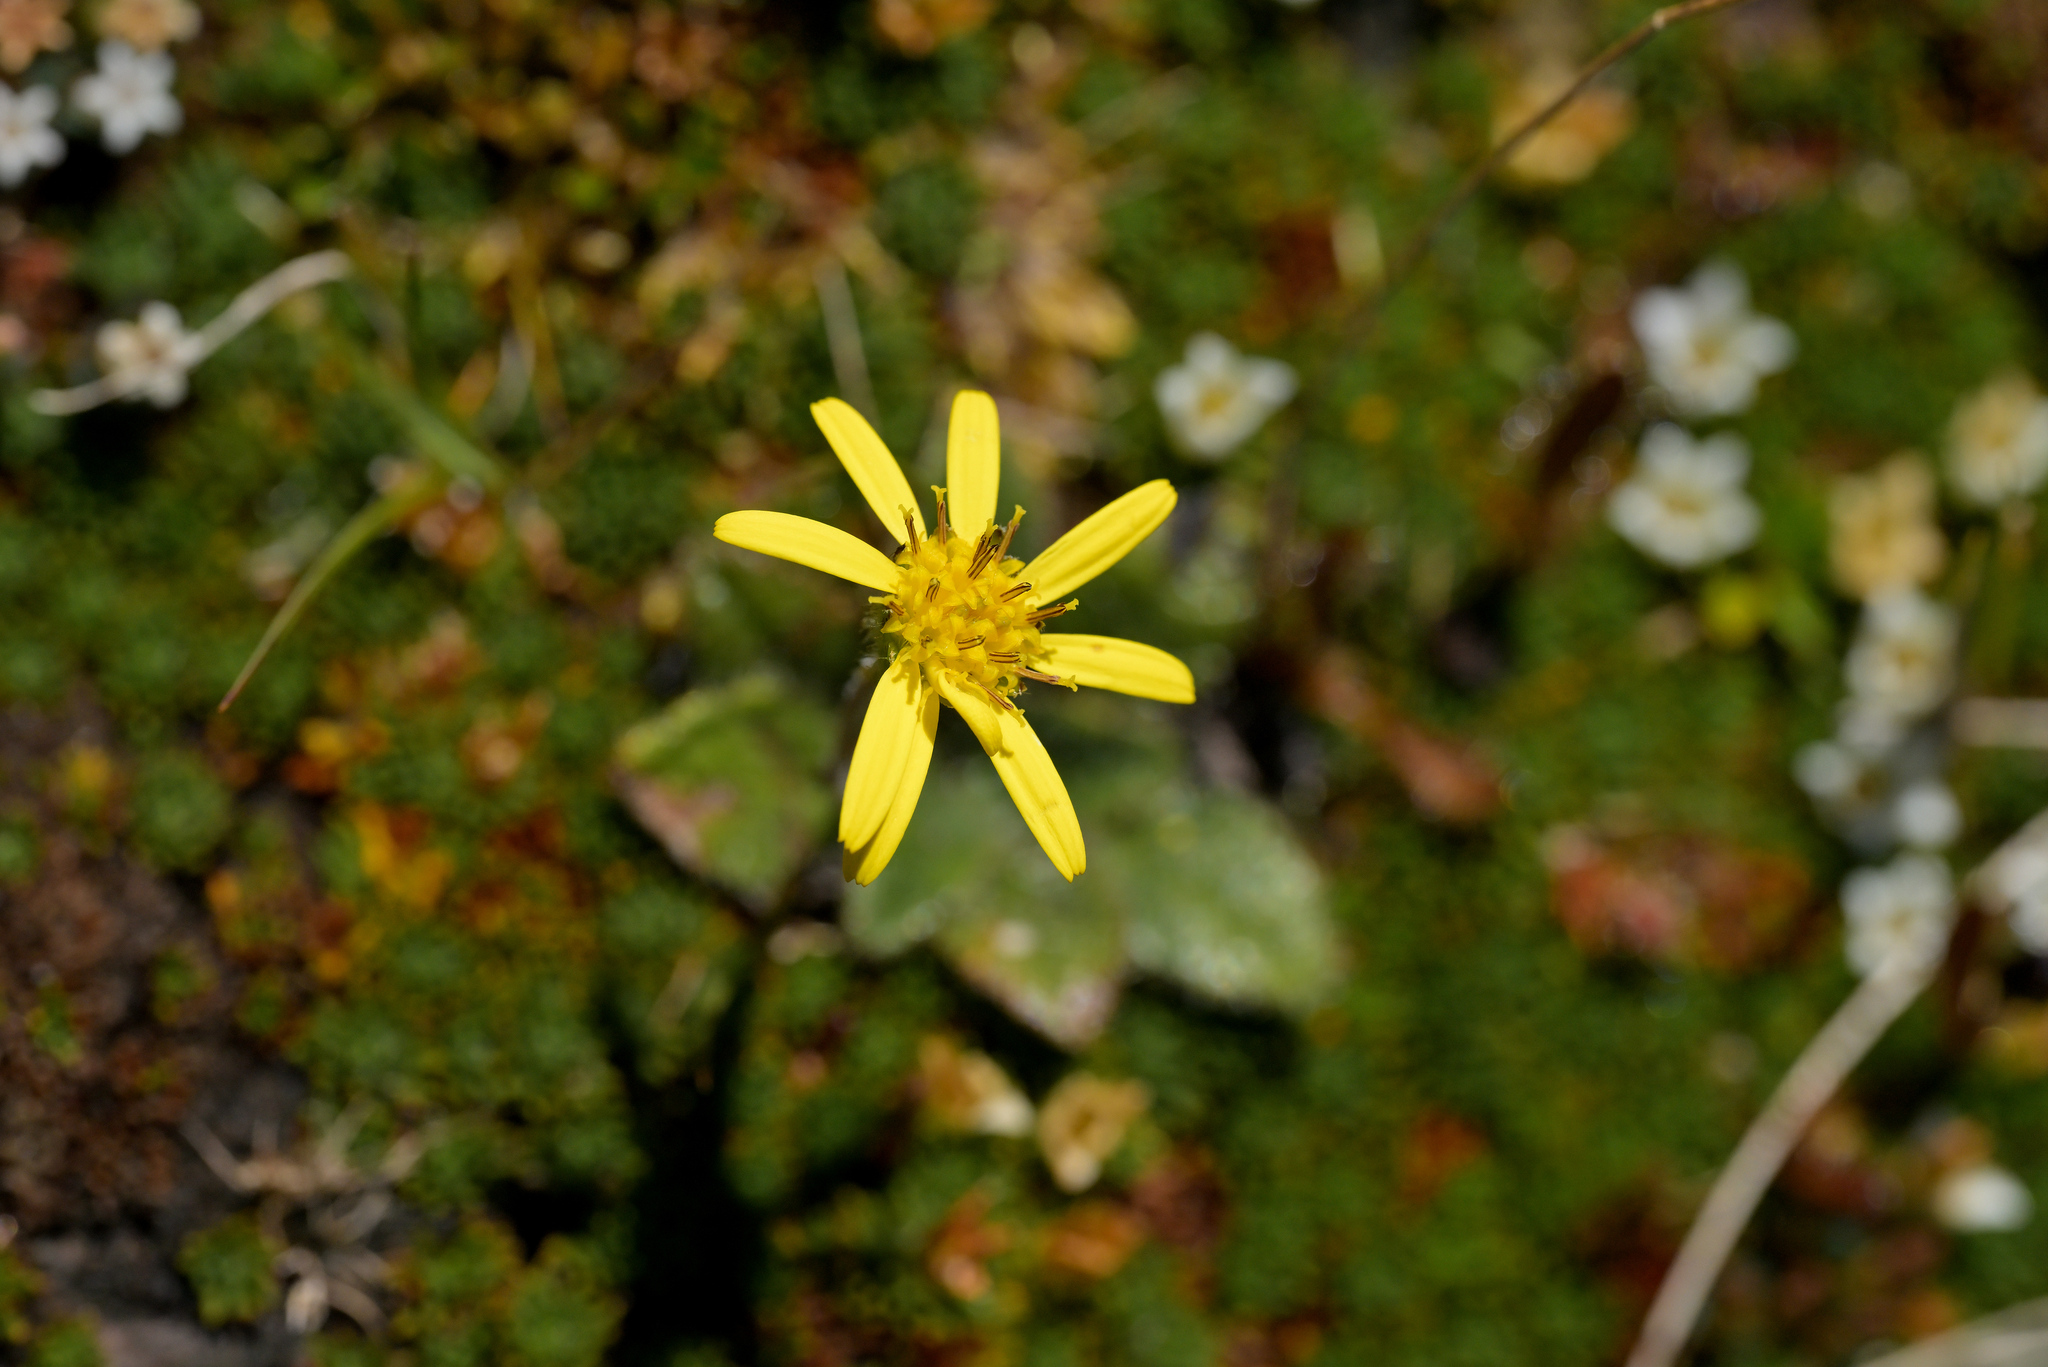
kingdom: Plantae
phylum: Tracheophyta
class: Magnoliopsida
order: Asterales
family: Asteraceae
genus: Brachyglottis
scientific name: Brachyglottis bellidioides
